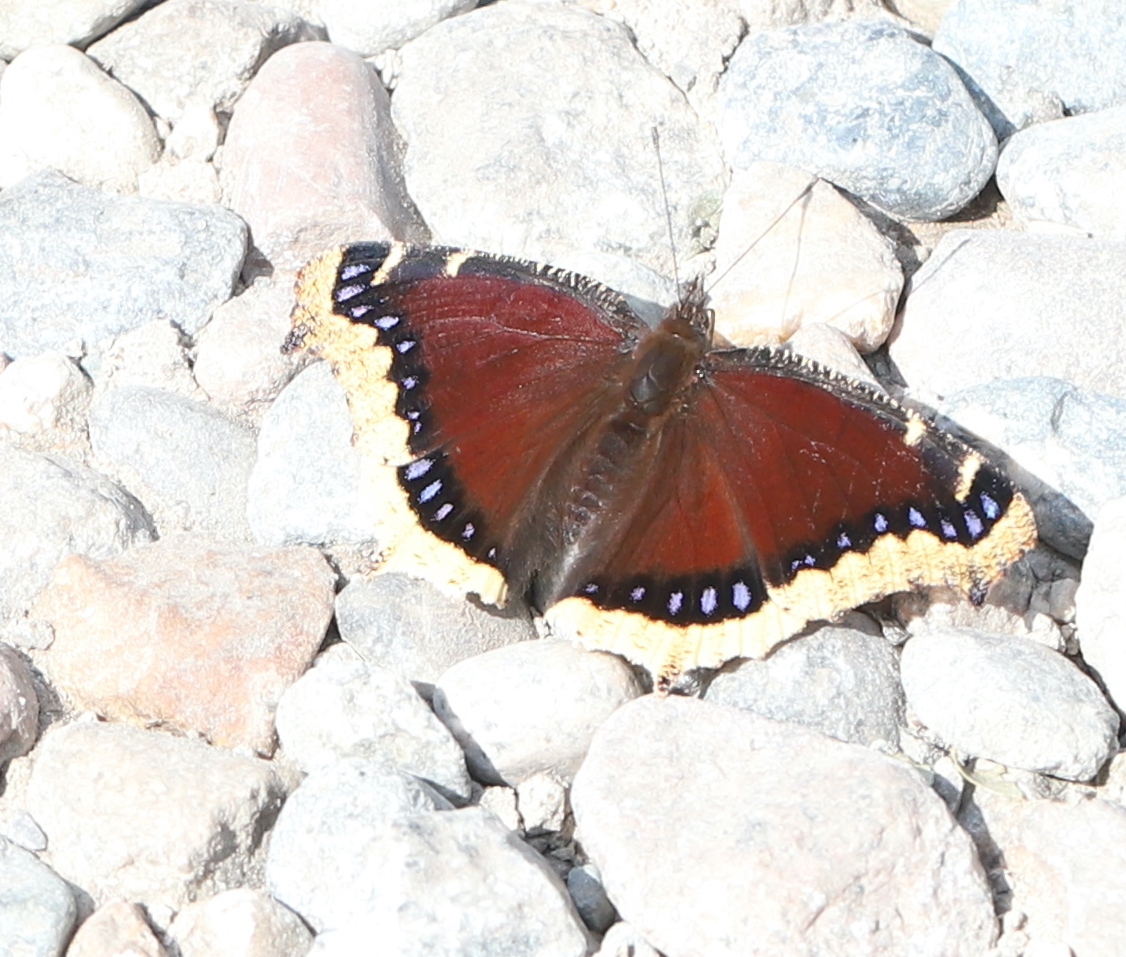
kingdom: Animalia
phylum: Arthropoda
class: Insecta
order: Lepidoptera
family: Nymphalidae
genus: Nymphalis
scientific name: Nymphalis antiopa
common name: Camberwell beauty
